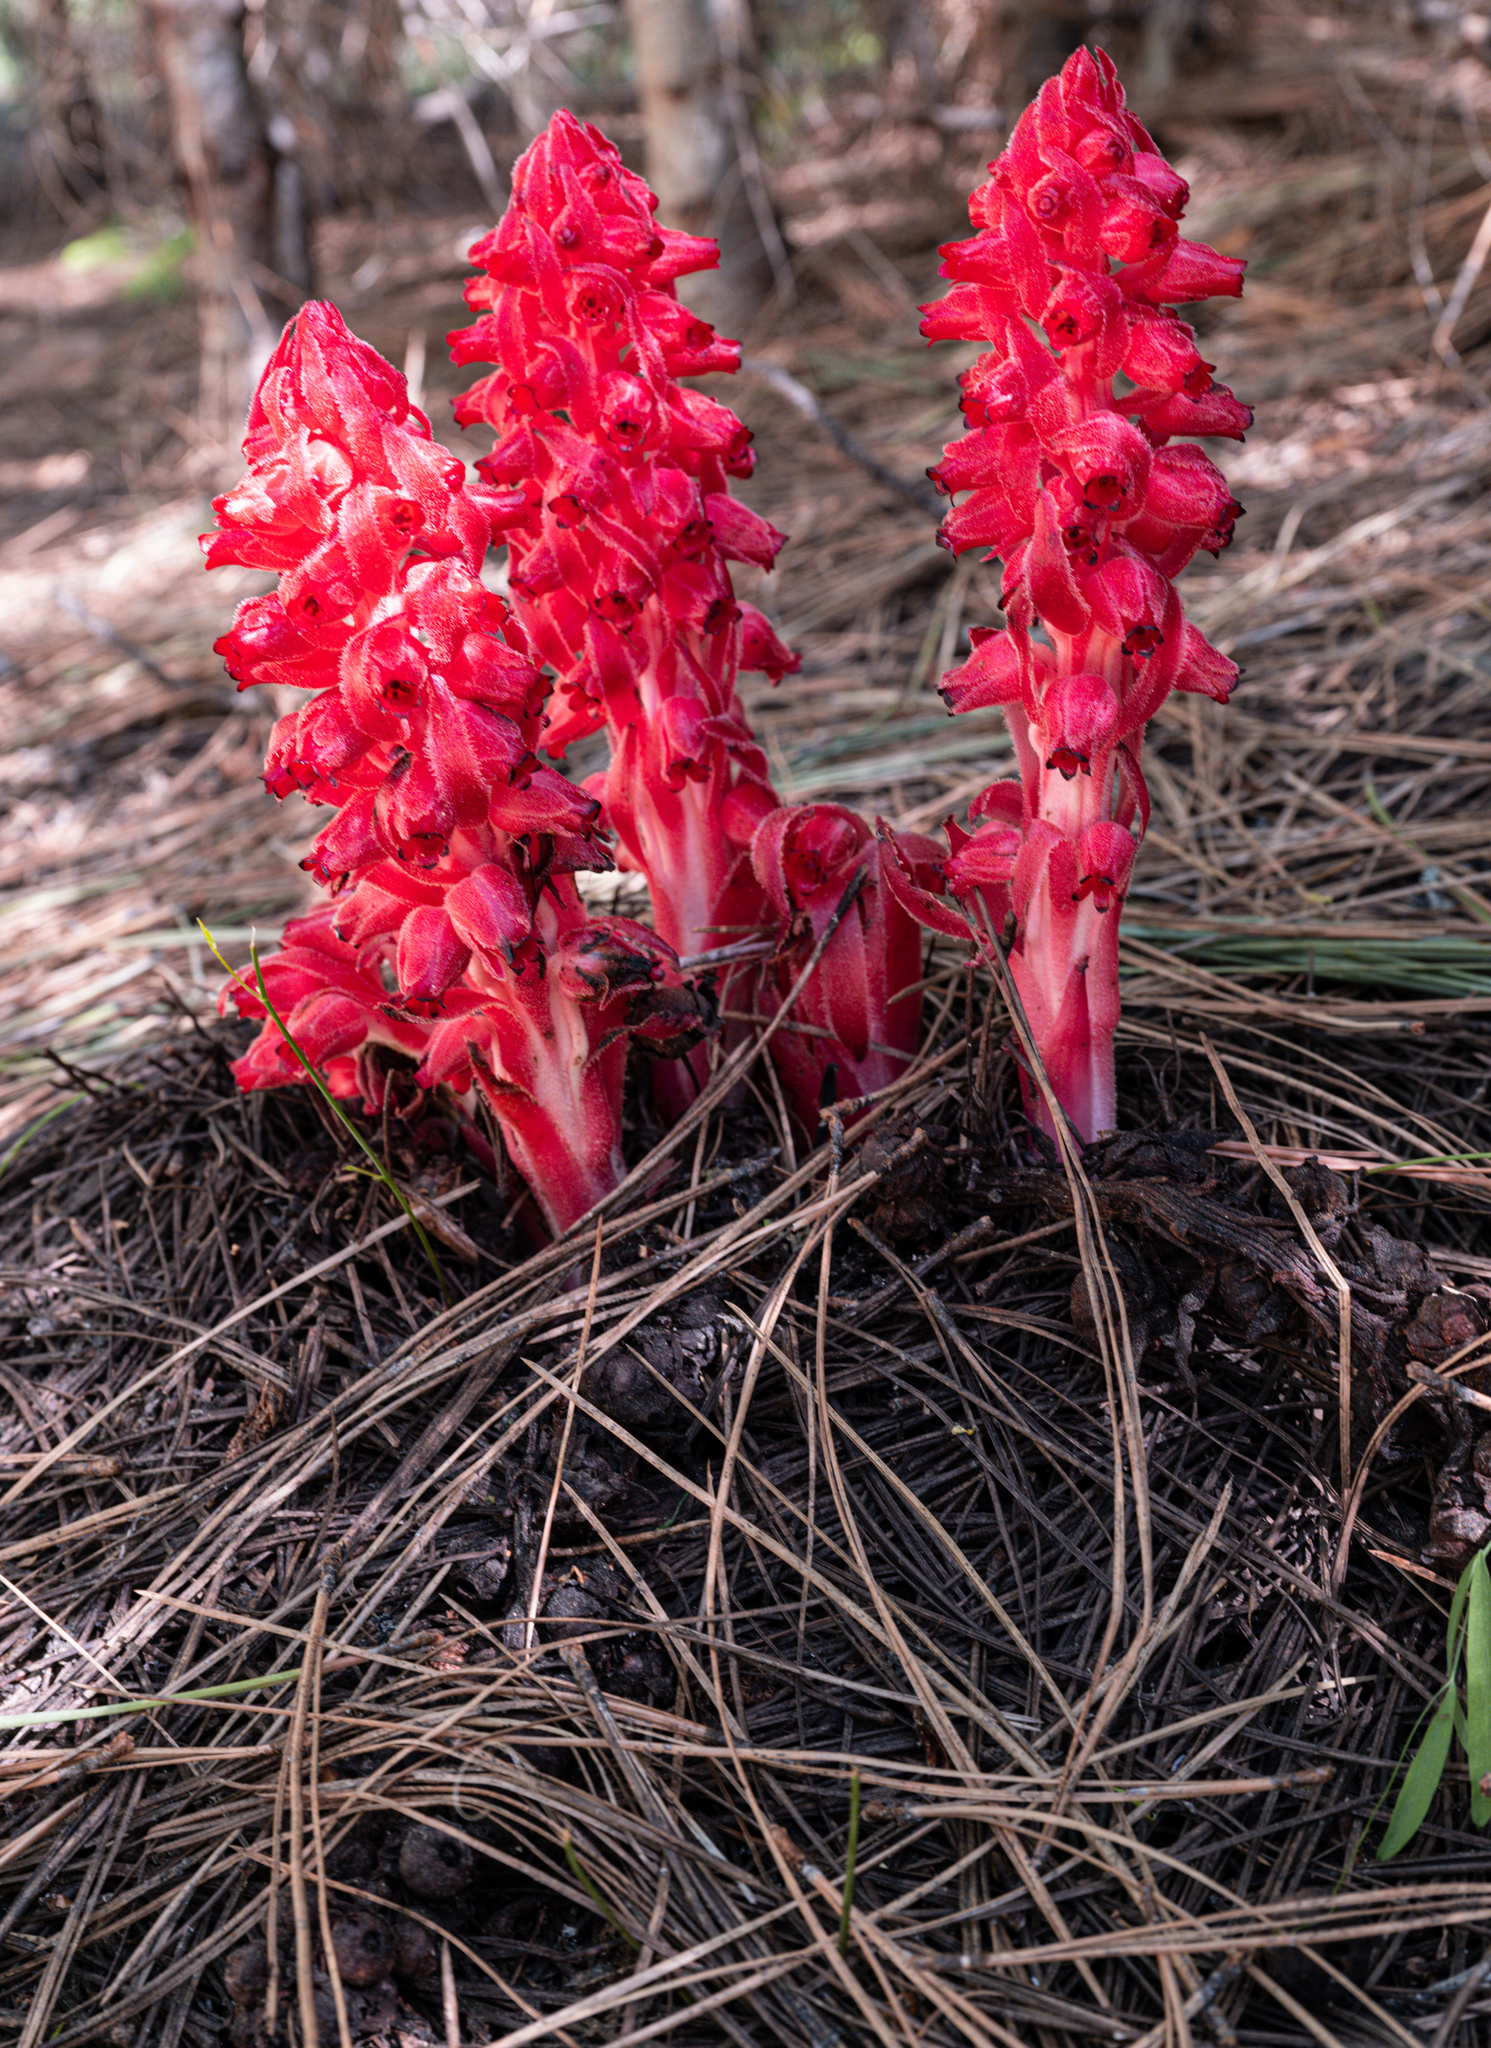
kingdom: Plantae
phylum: Tracheophyta
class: Magnoliopsida
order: Ericales
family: Ericaceae
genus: Sarcodes
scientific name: Sarcodes sanguinea
